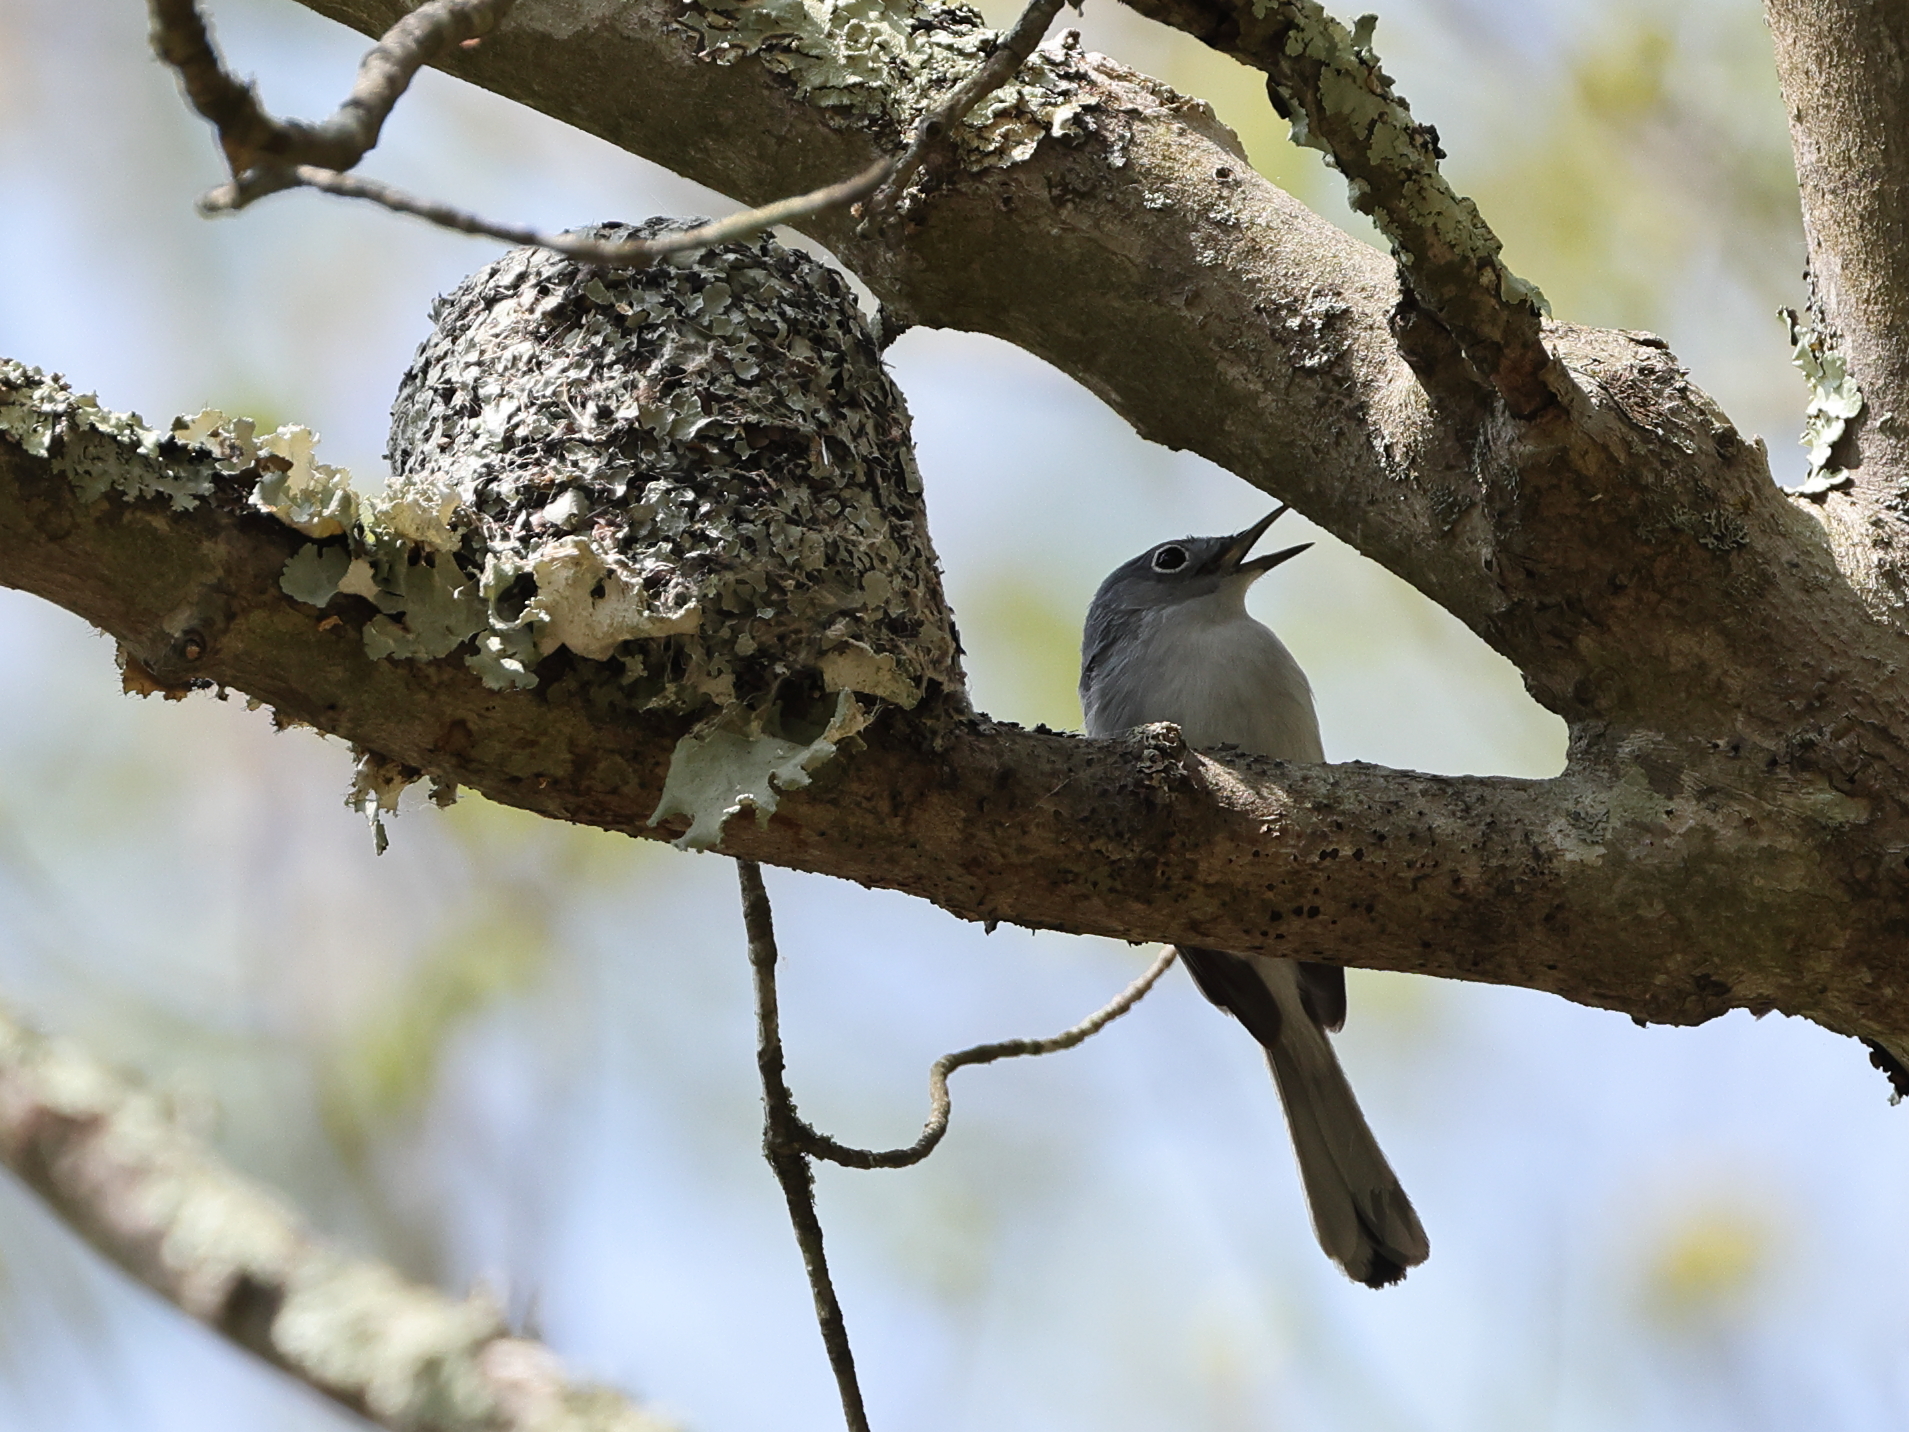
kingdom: Animalia
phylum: Chordata
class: Aves
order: Passeriformes
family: Polioptilidae
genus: Polioptila
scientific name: Polioptila caerulea
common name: Blue-gray gnatcatcher
